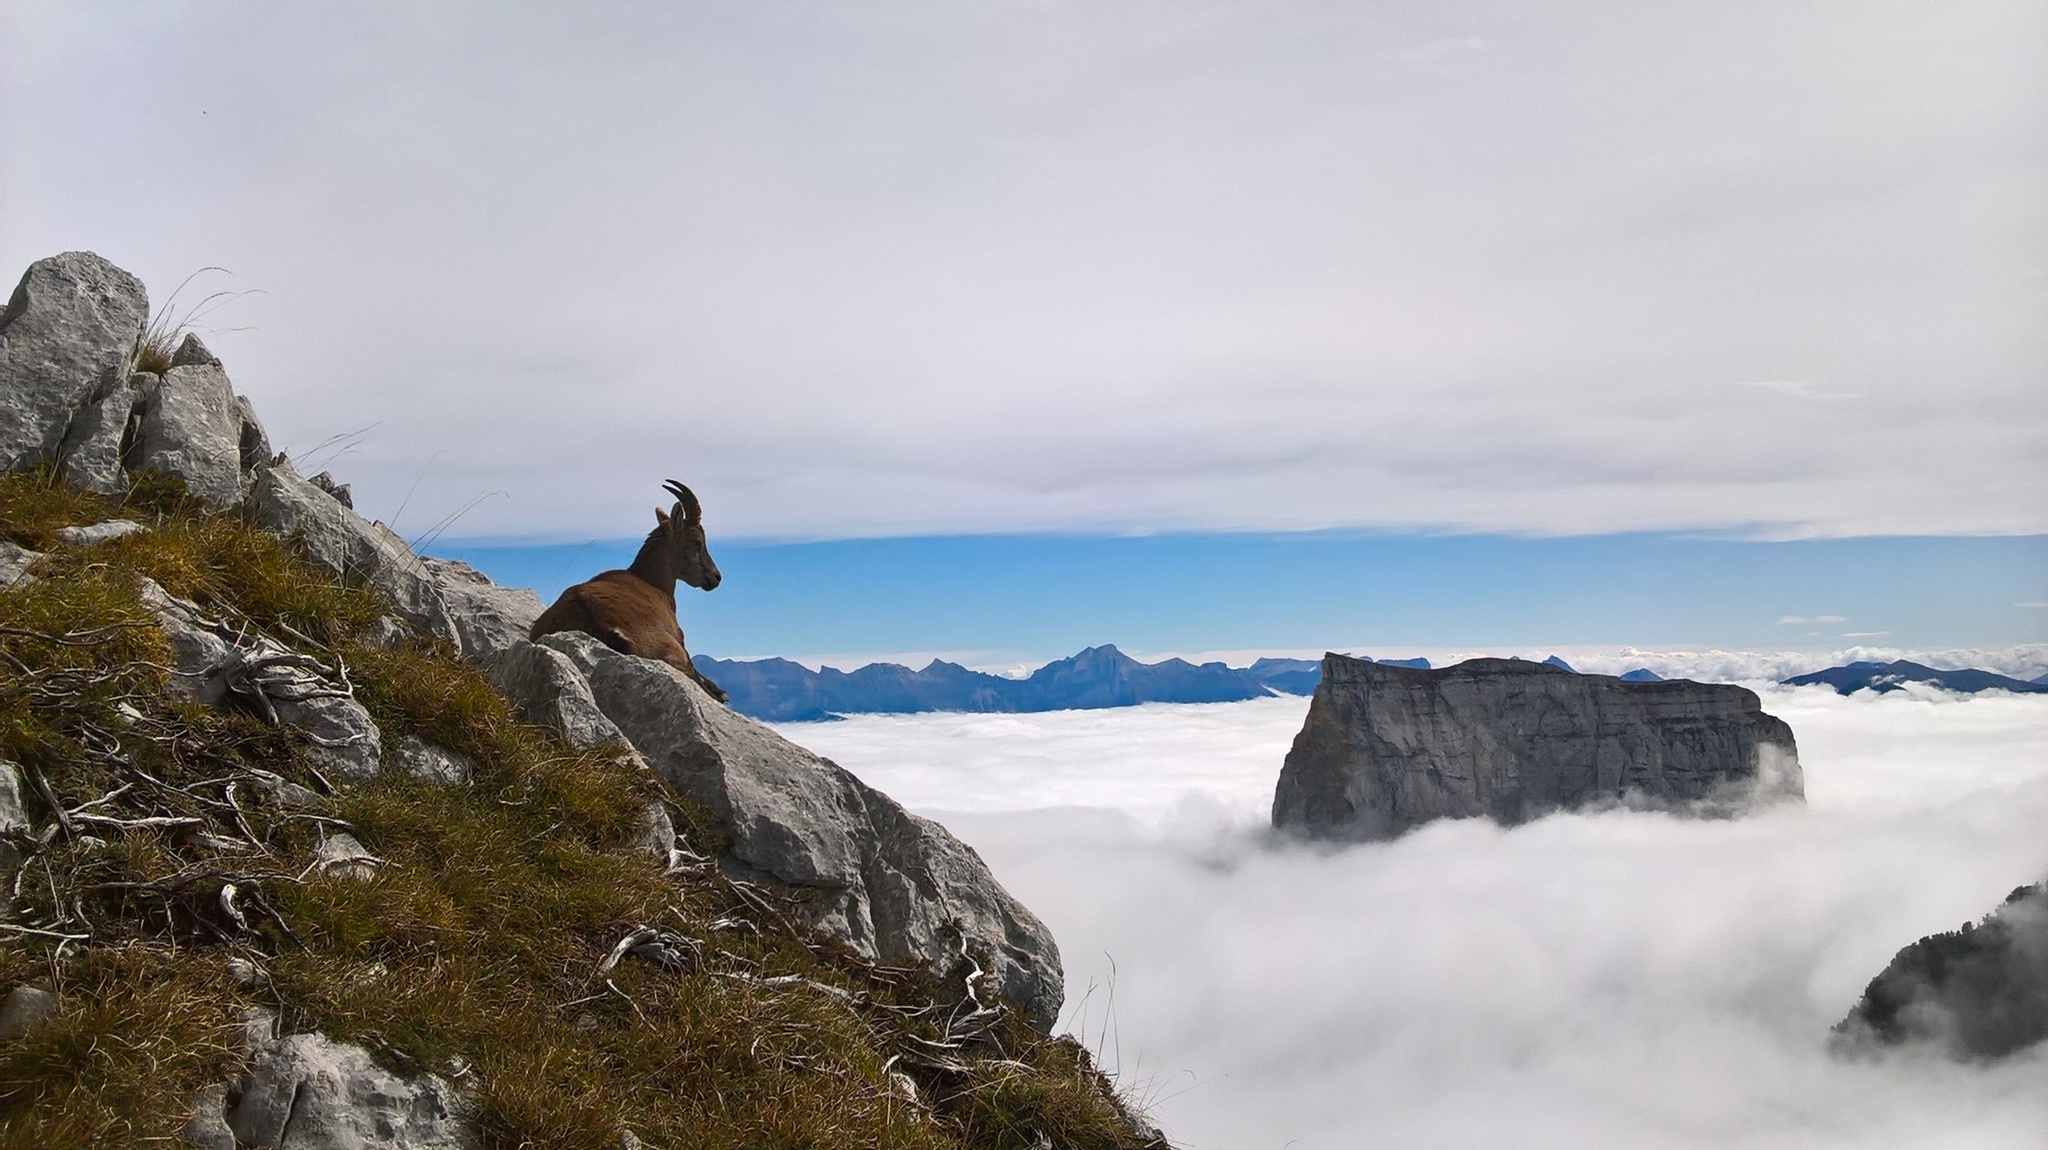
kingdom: Animalia
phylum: Chordata
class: Mammalia
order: Artiodactyla
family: Bovidae
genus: Capra
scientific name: Capra ibex
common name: Alpine ibex
